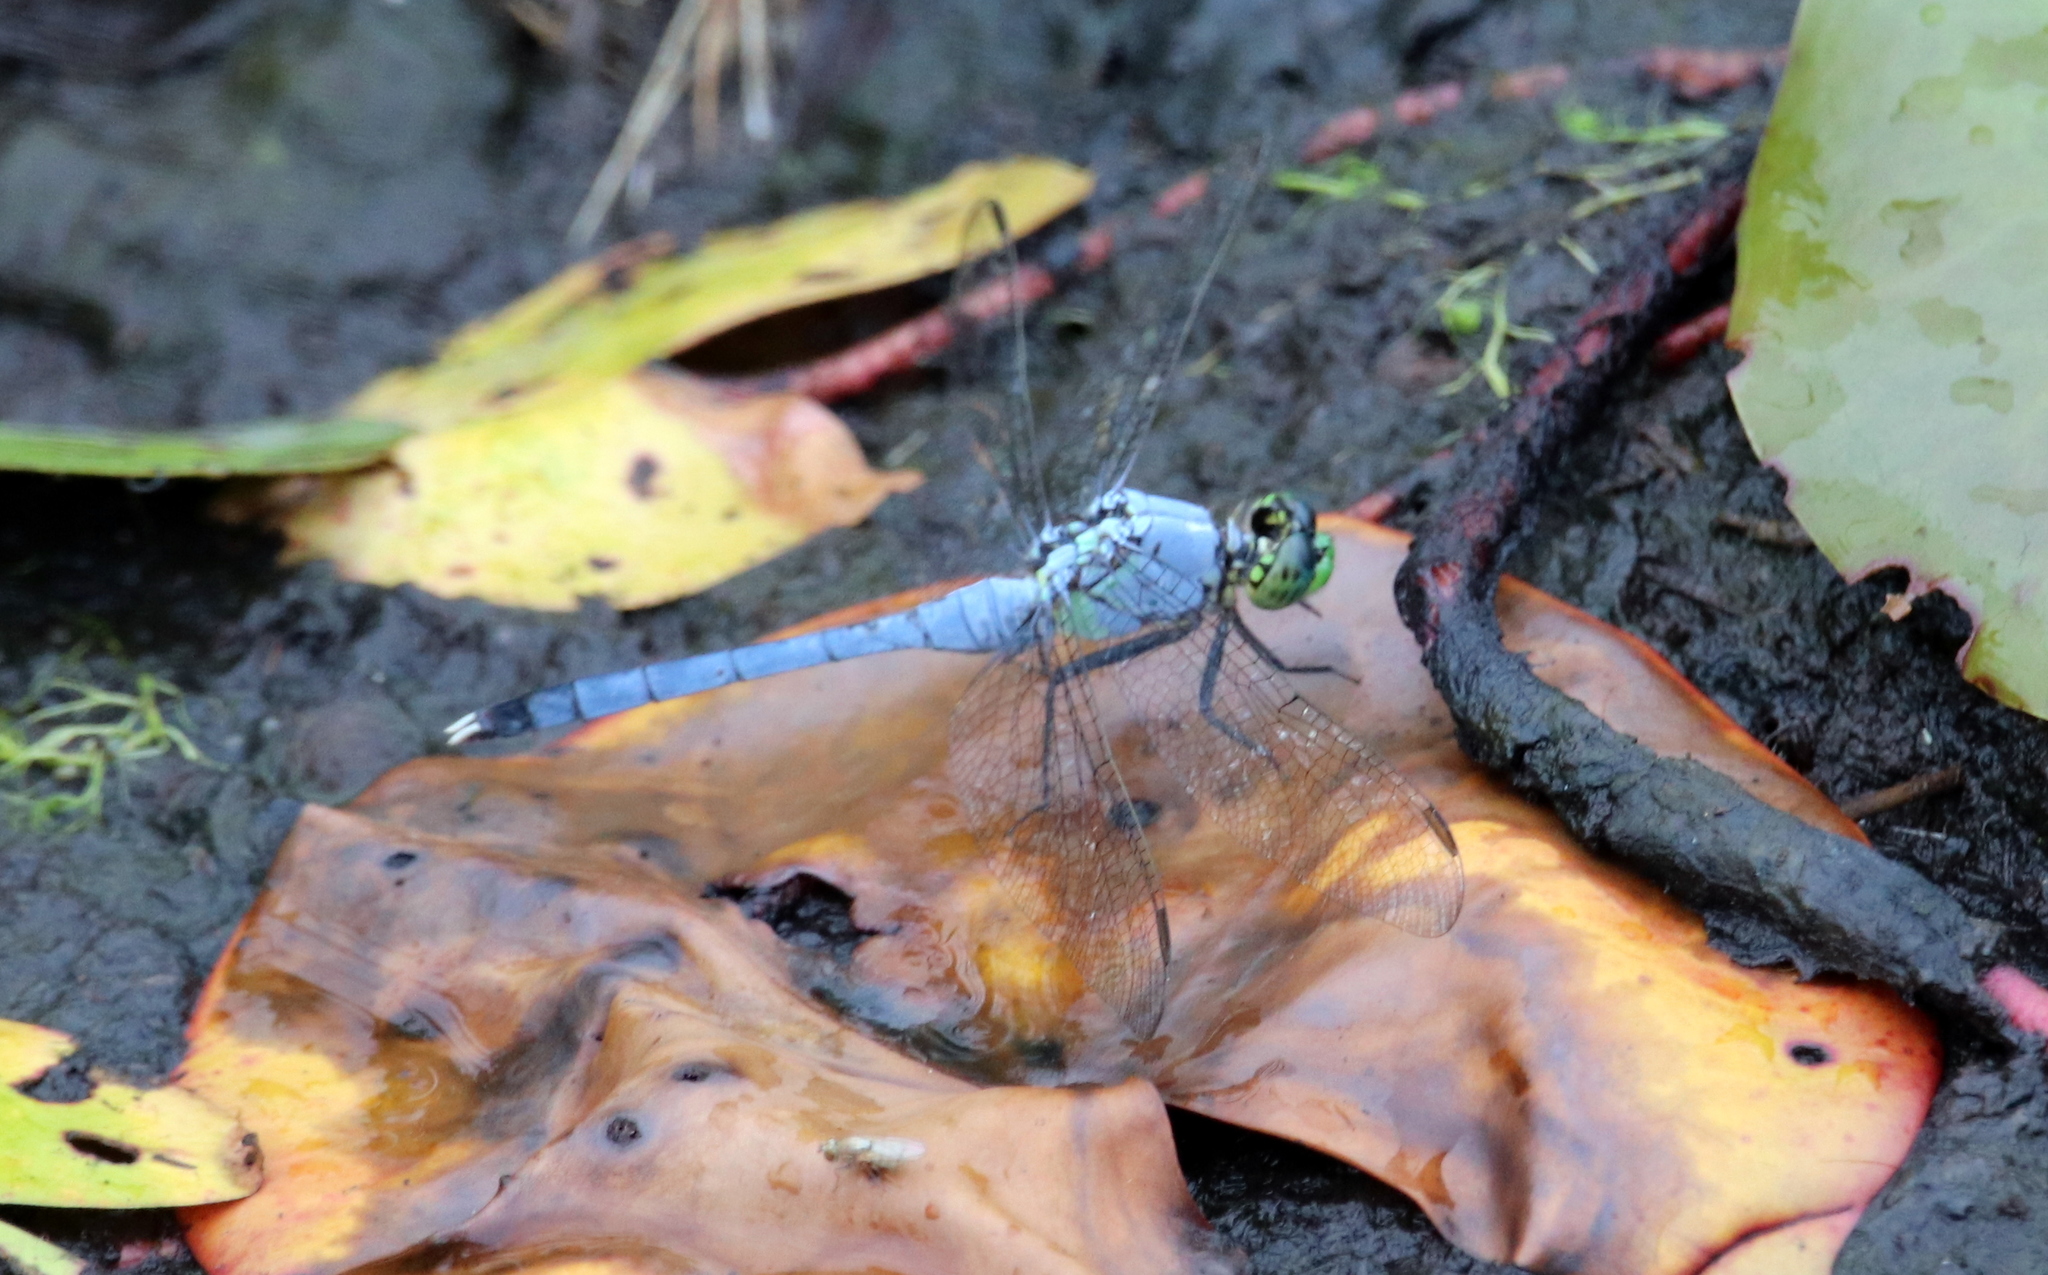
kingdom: Animalia
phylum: Arthropoda
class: Insecta
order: Odonata
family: Libellulidae
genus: Erythemis
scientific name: Erythemis simplicicollis
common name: Eastern pondhawk
